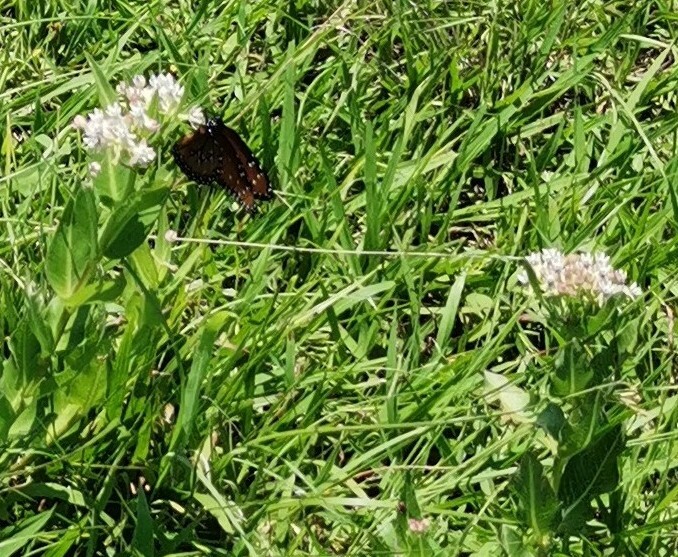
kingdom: Plantae
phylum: Tracheophyta
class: Magnoliopsida
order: Gentianales
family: Apocynaceae
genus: Asclepias
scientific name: Asclepias pratensis
